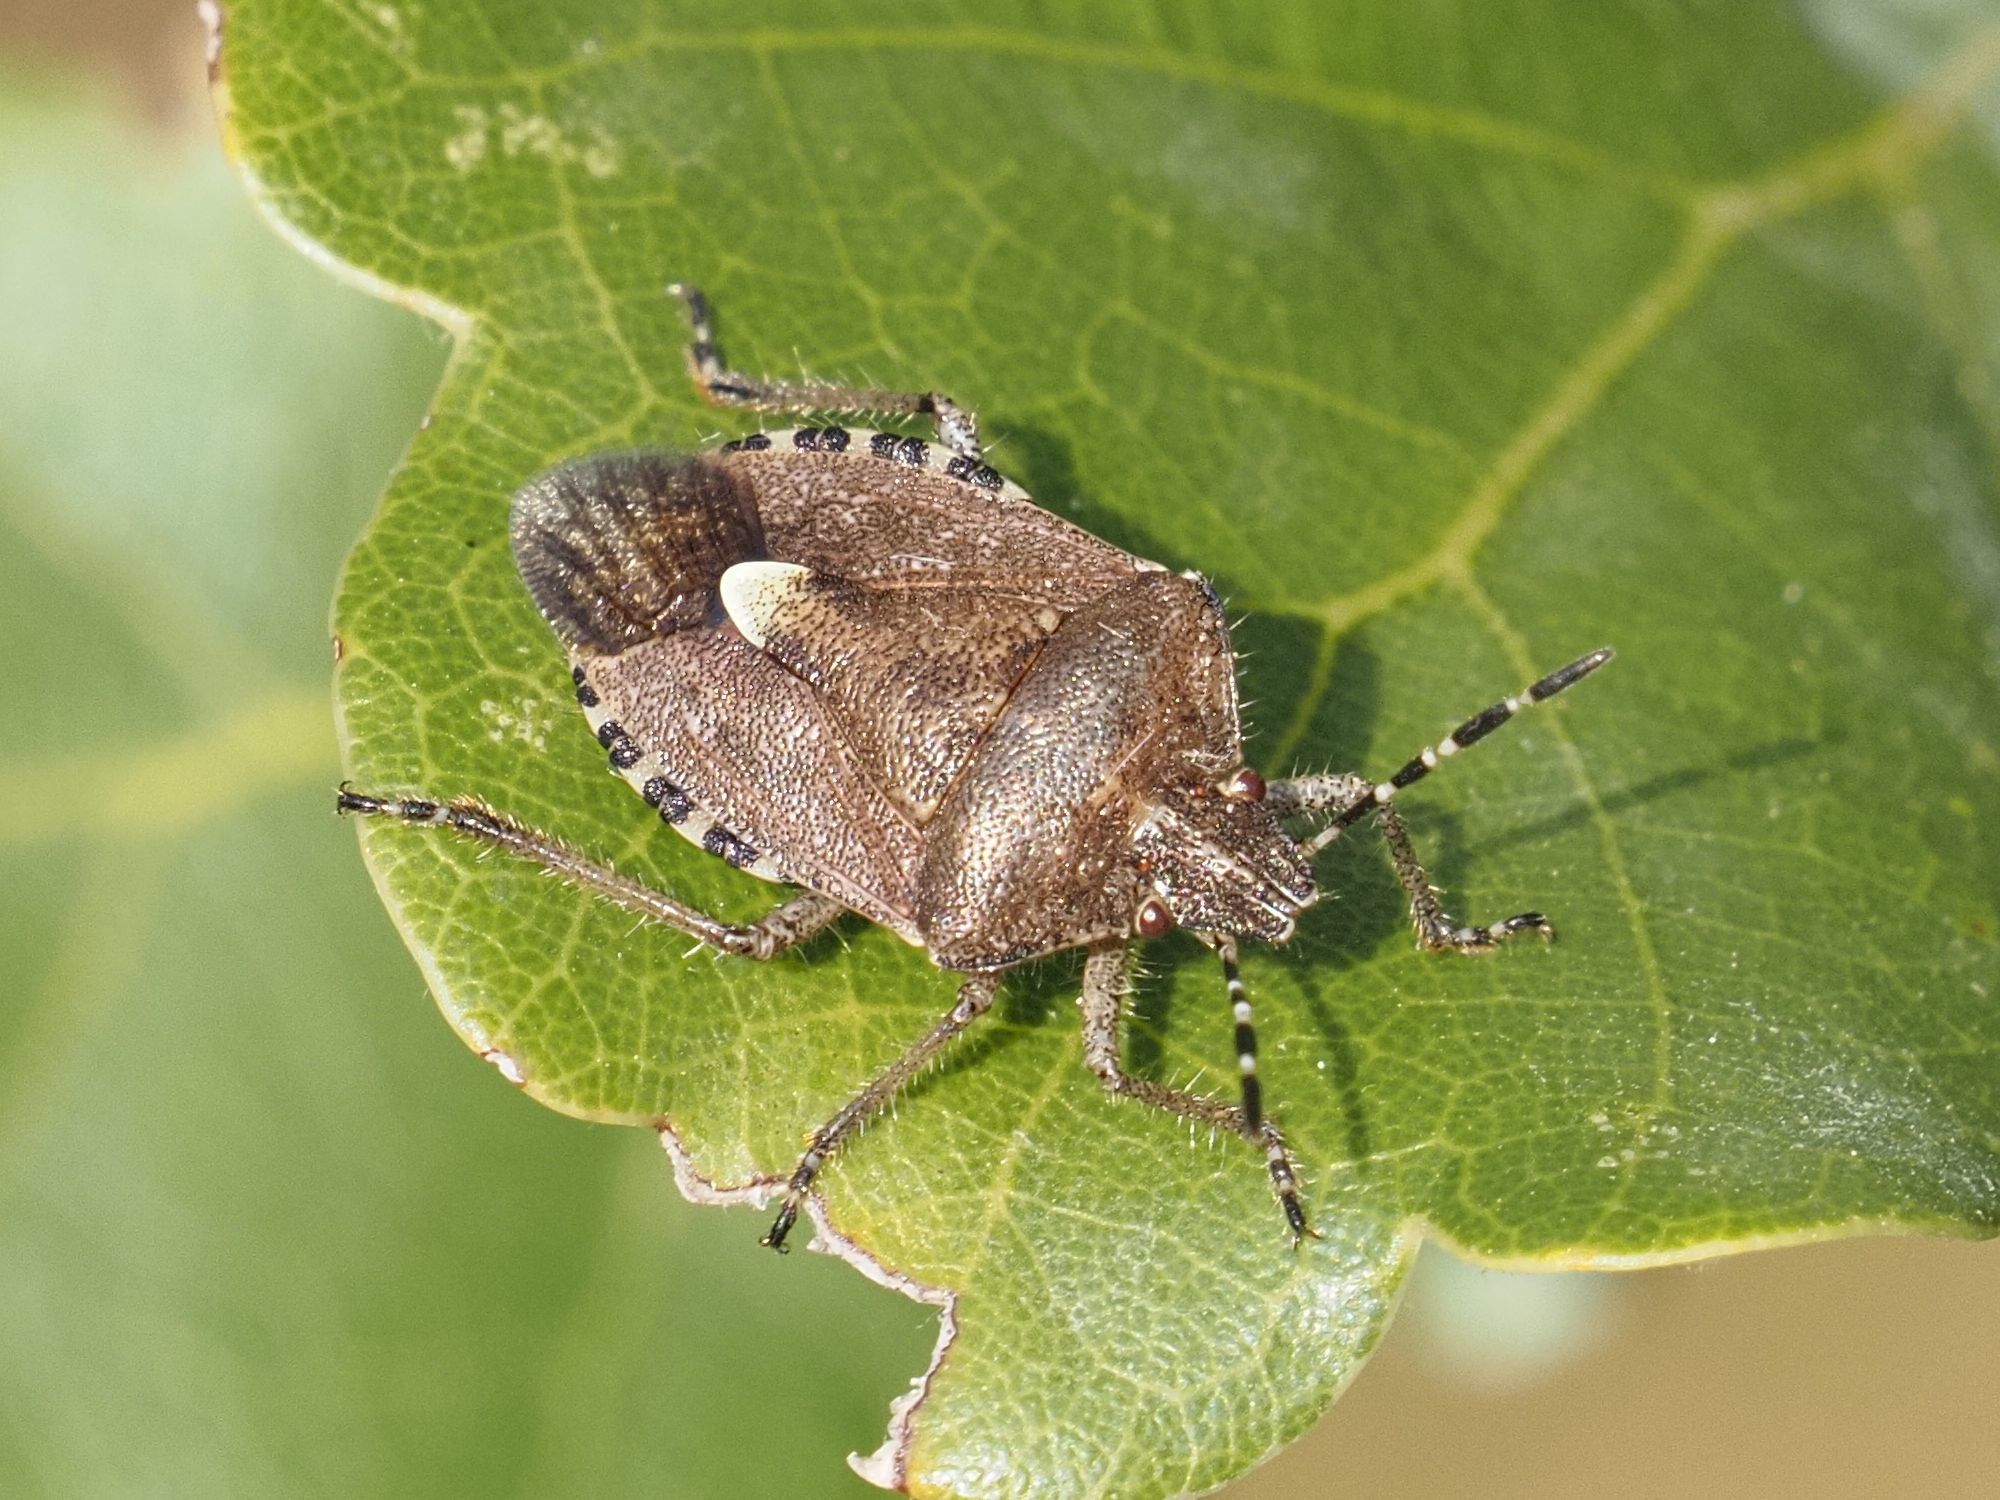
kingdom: Animalia
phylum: Arthropoda
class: Insecta
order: Hemiptera
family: Pentatomidae
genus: Dolycoris
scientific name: Dolycoris baccarum
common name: Sloe bug
